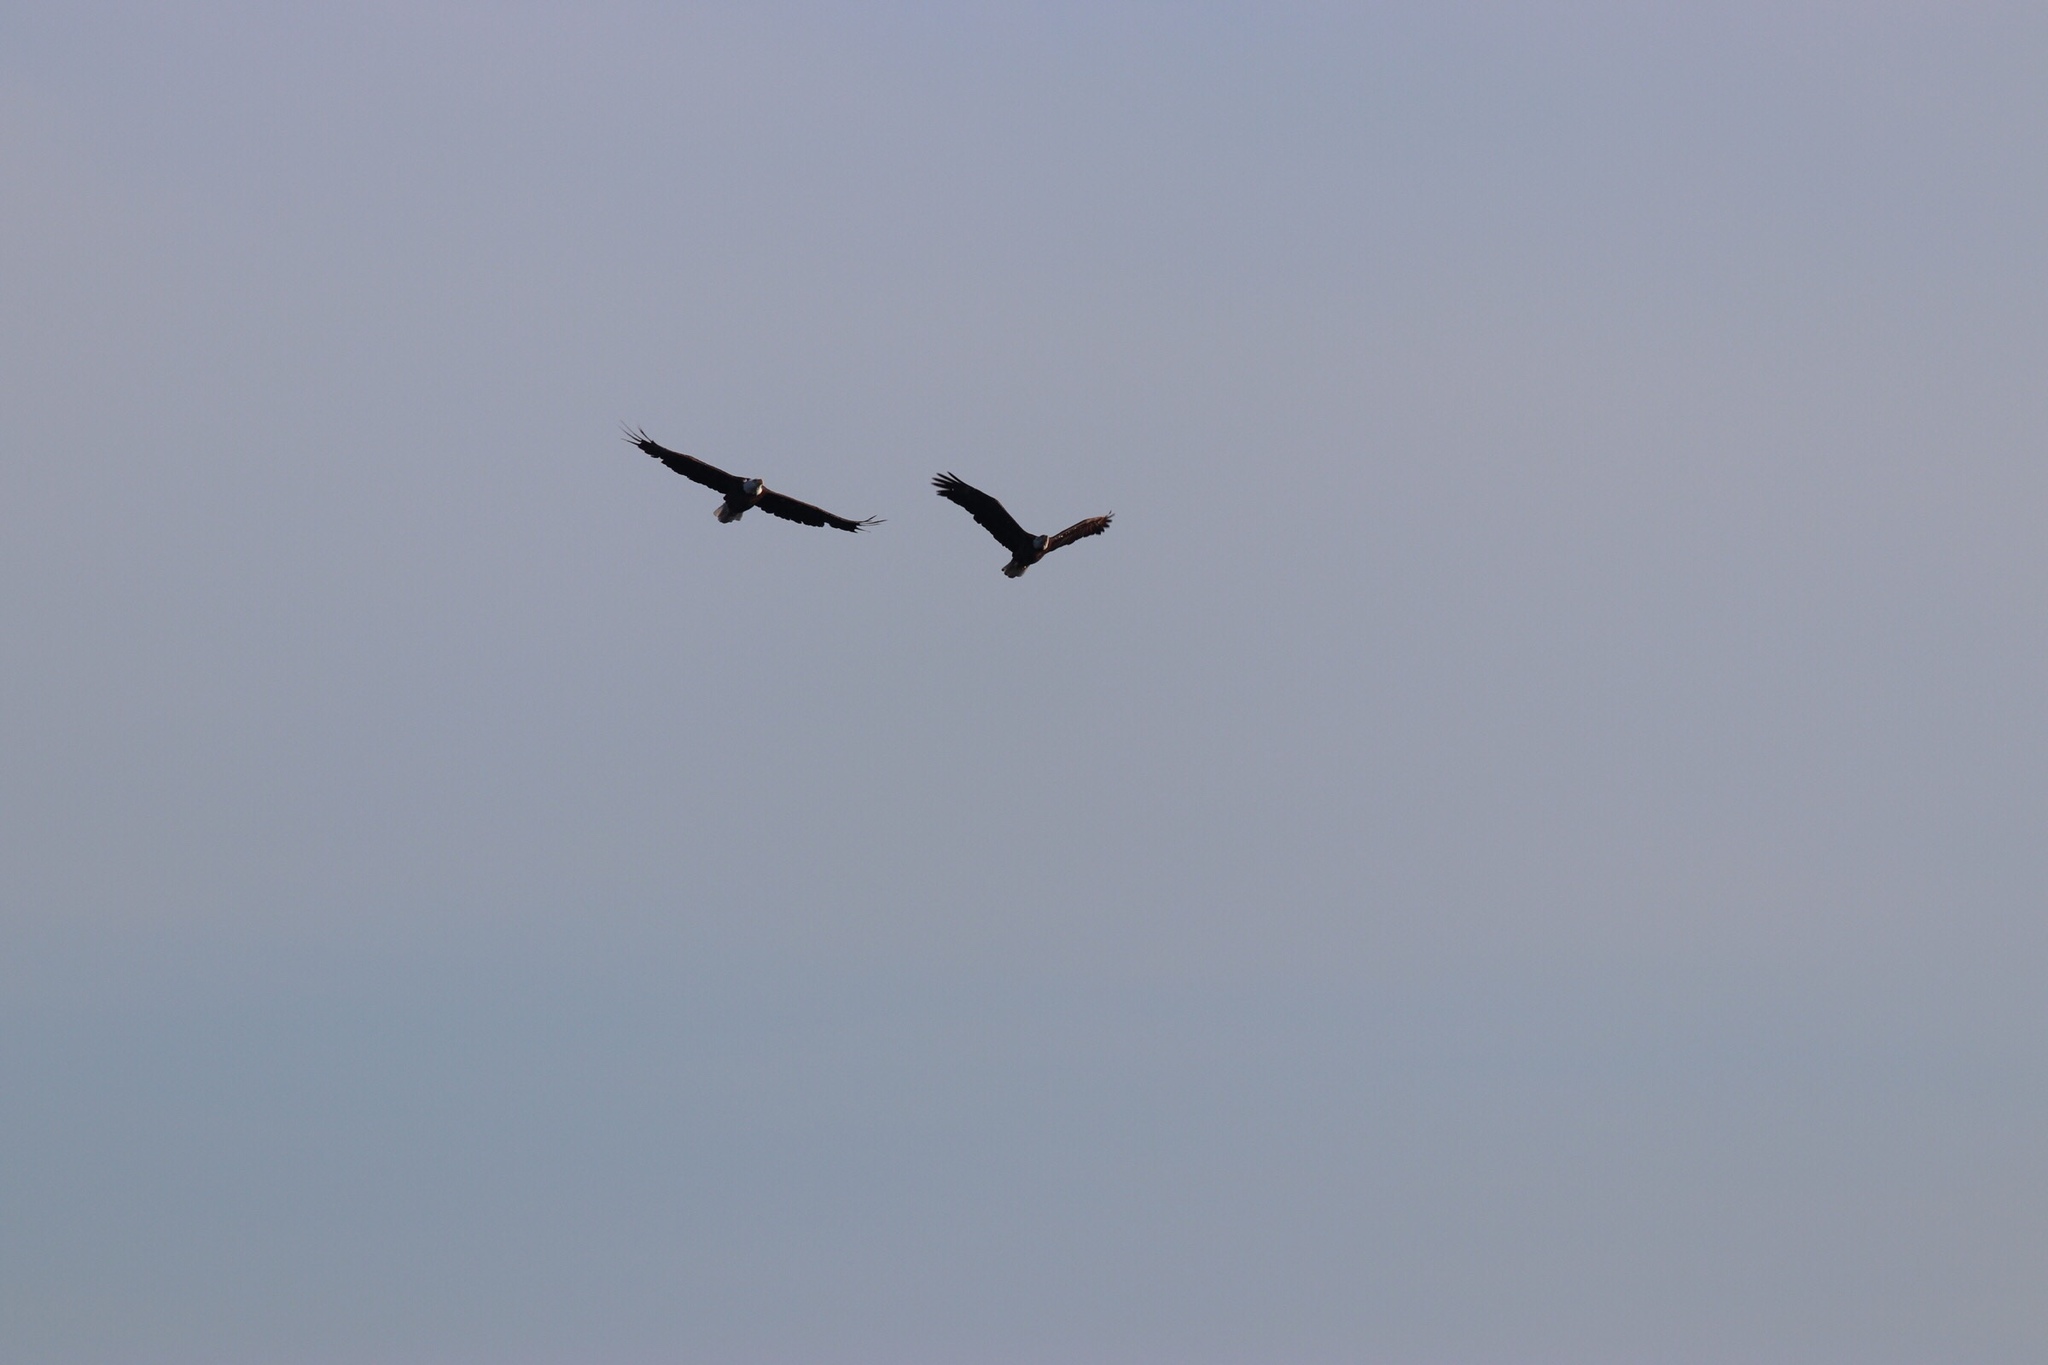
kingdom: Animalia
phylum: Chordata
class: Aves
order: Accipitriformes
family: Accipitridae
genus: Haliaeetus
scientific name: Haliaeetus leucocephalus
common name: Bald eagle
